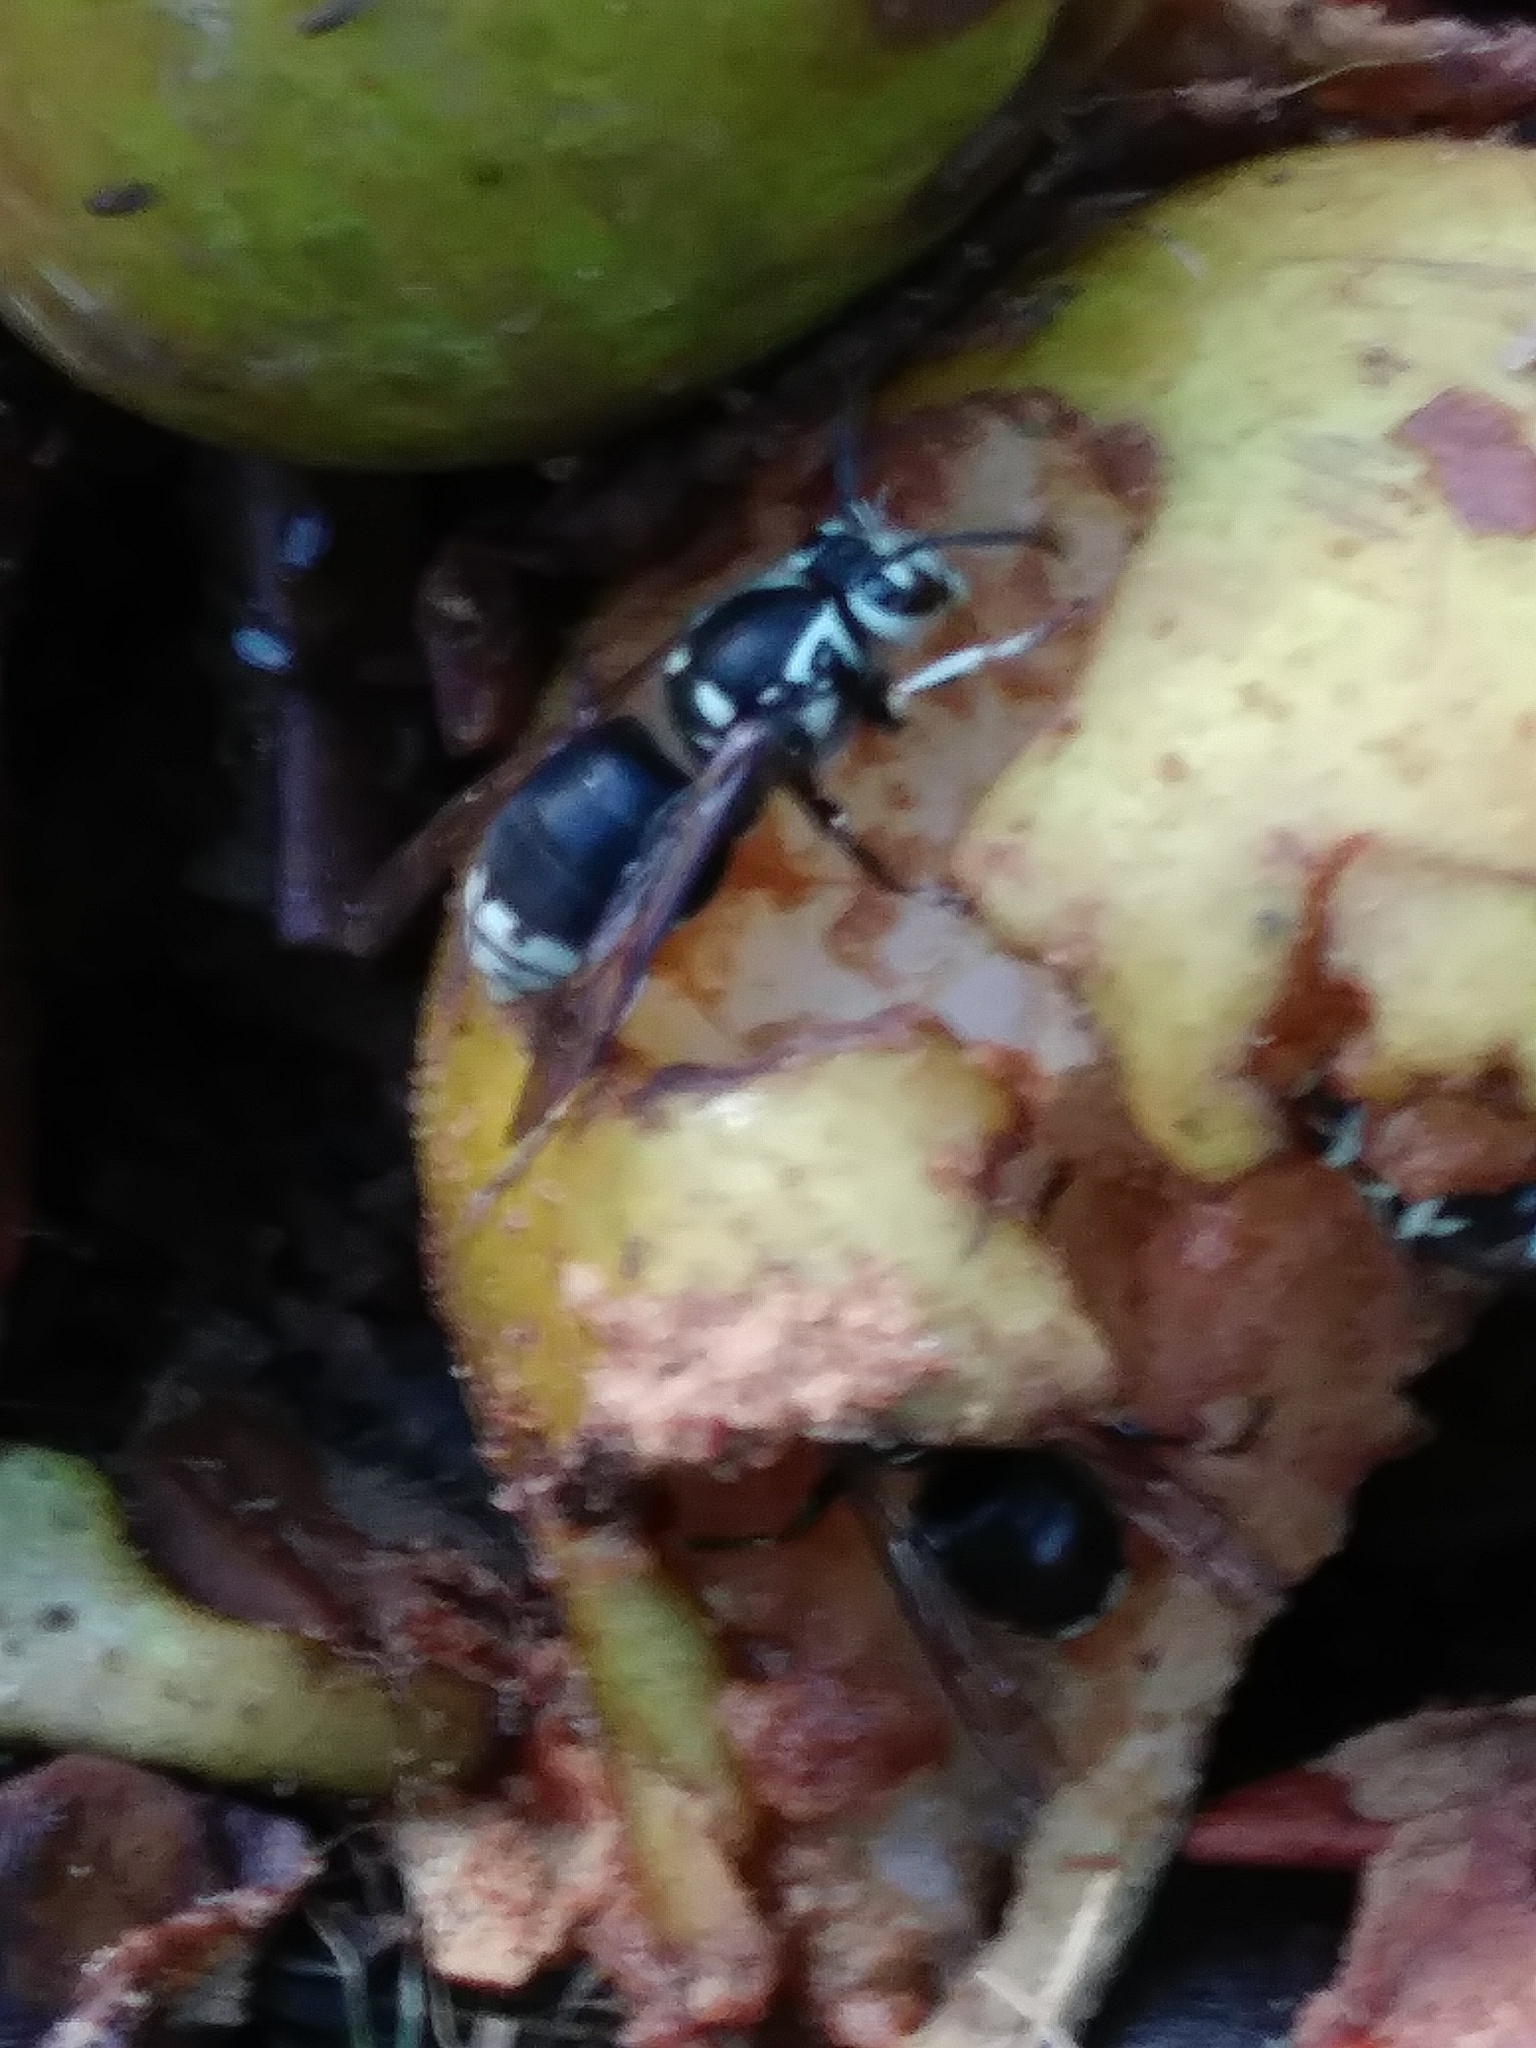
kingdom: Animalia
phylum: Arthropoda
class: Insecta
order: Hymenoptera
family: Vespidae
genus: Dolichovespula
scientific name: Dolichovespula maculata
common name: Bald-faced hornet
